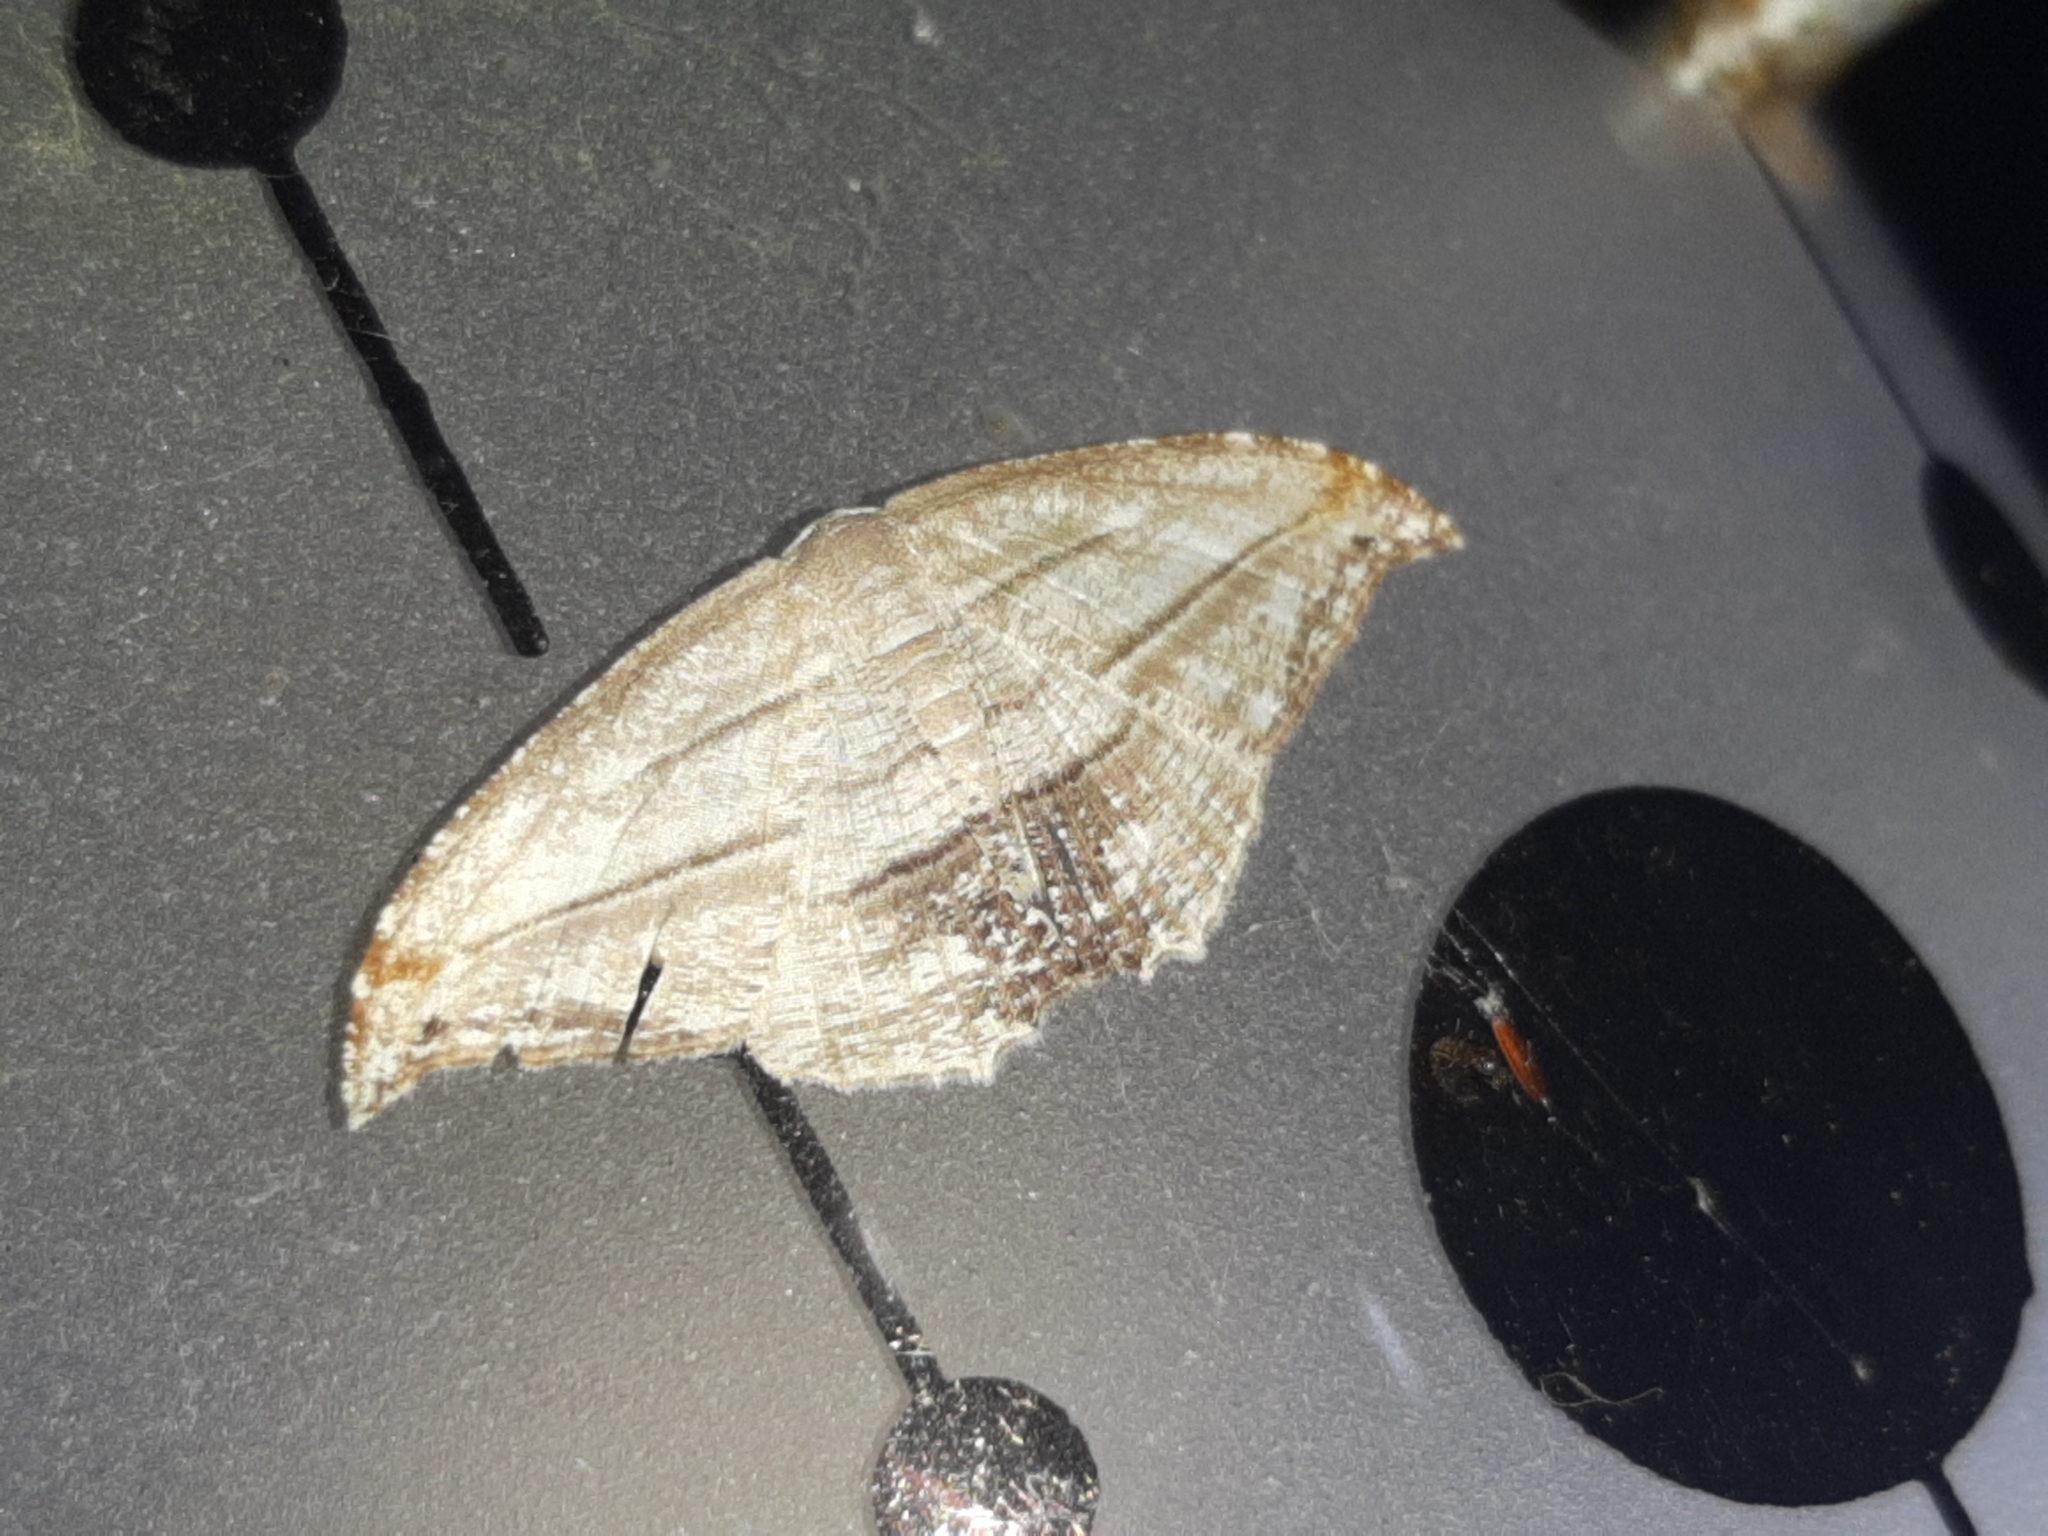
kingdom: Animalia
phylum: Arthropoda
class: Insecta
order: Lepidoptera
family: Uraniidae
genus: Morphomima
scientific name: Morphomima fulvitacta
